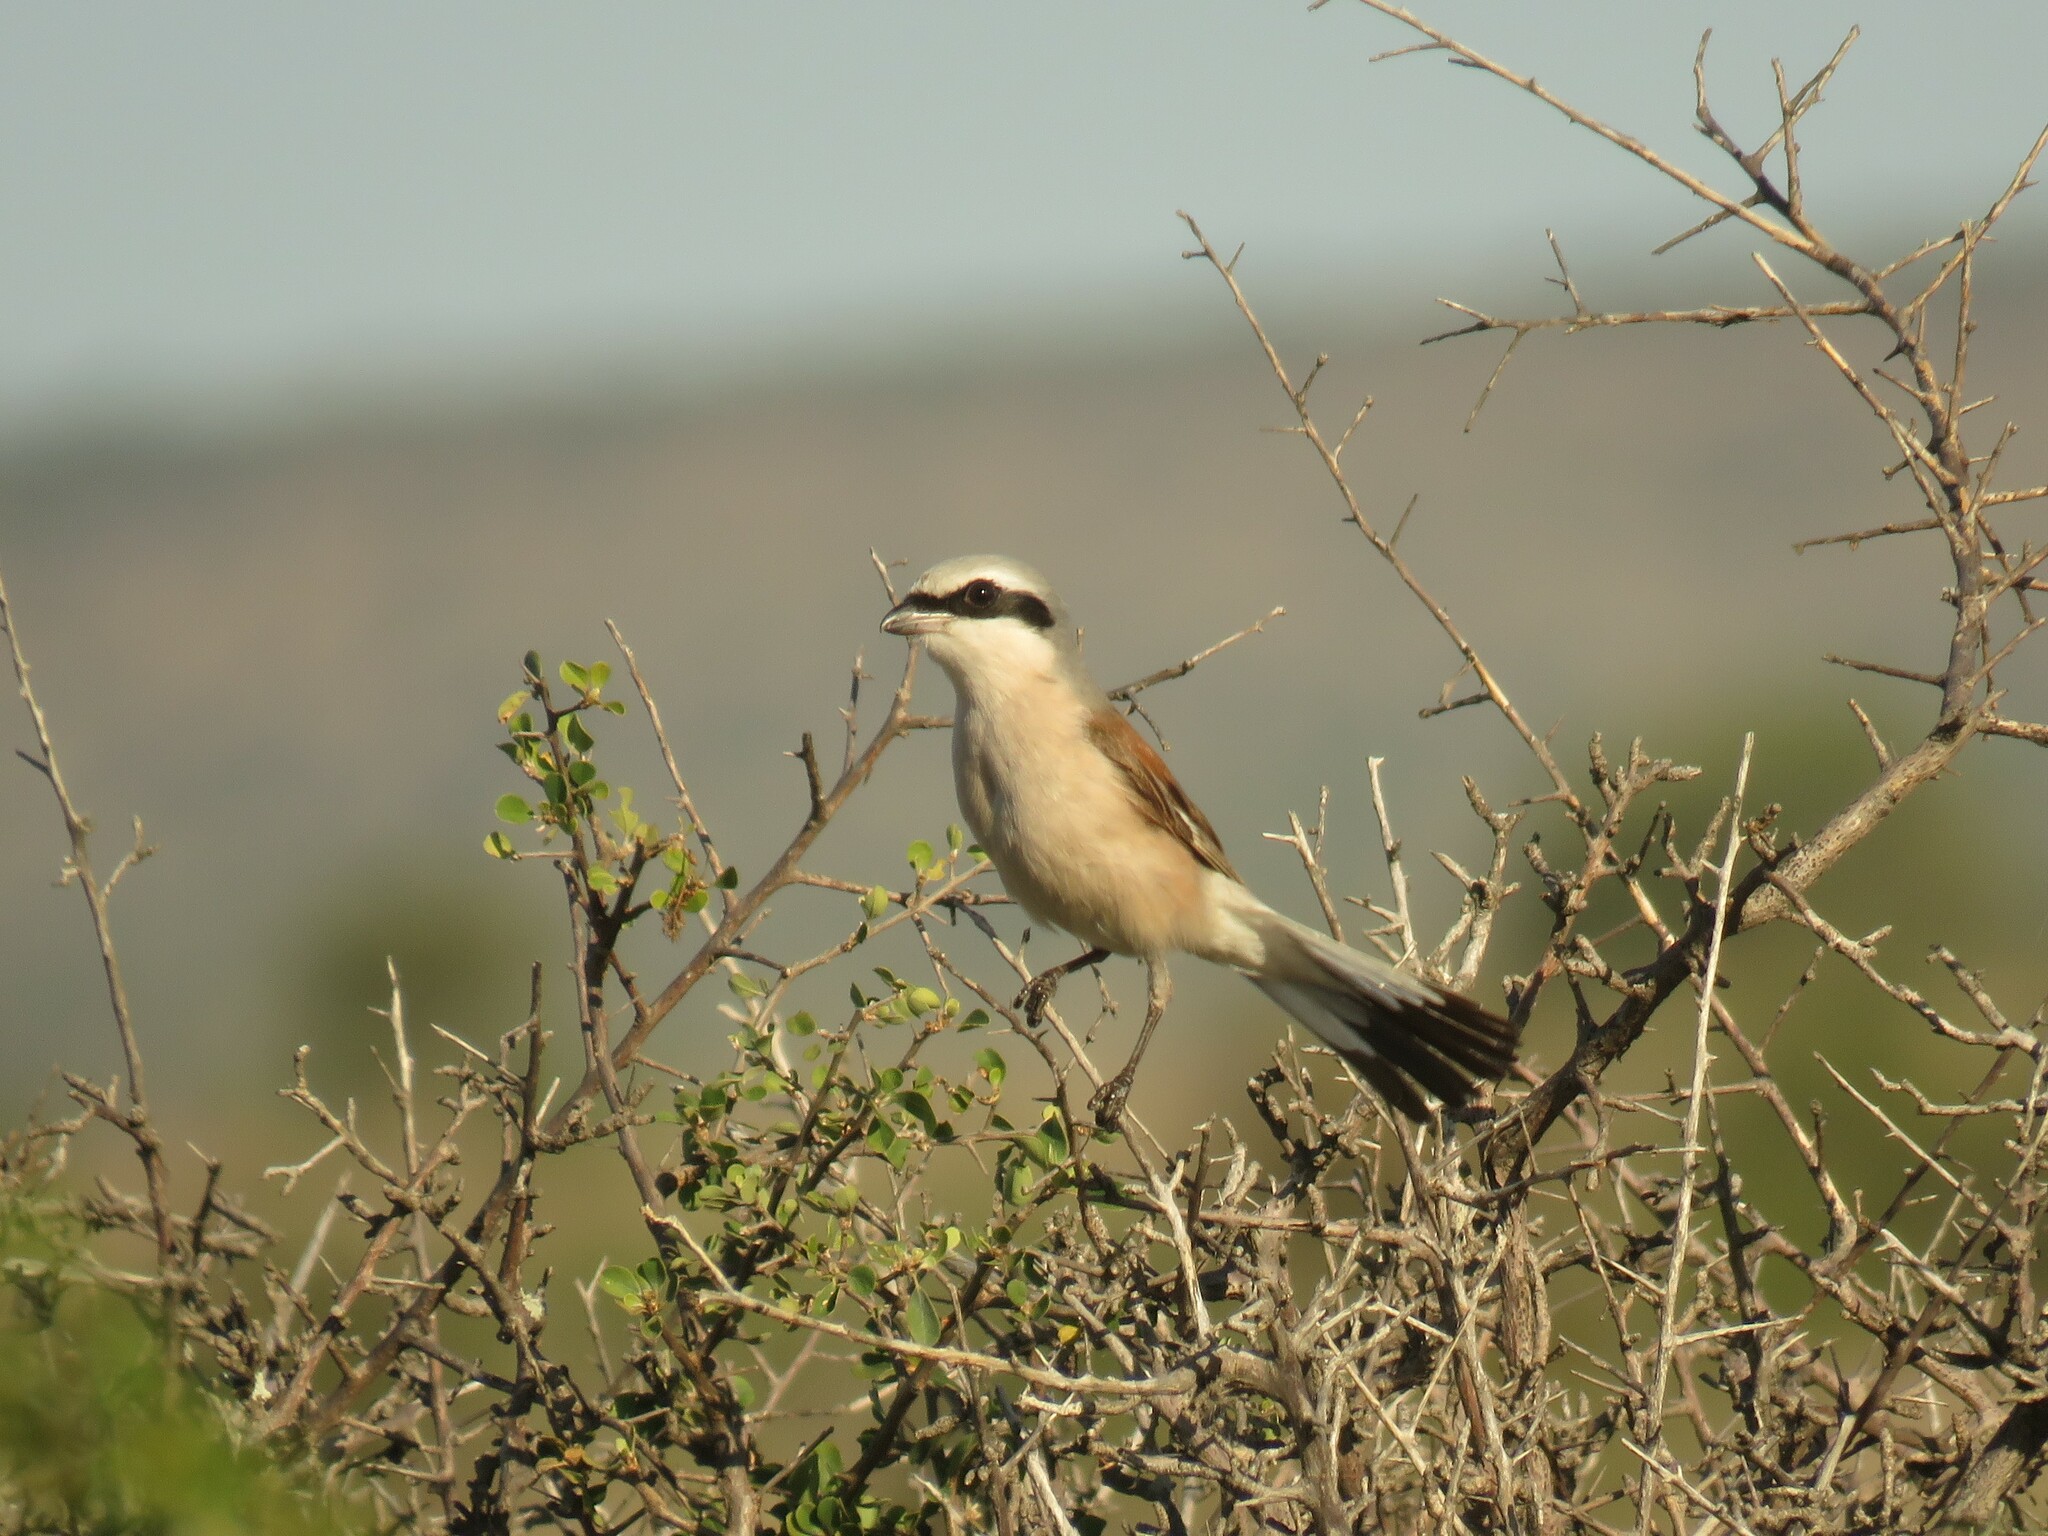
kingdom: Animalia
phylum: Chordata
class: Aves
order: Passeriformes
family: Laniidae
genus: Lanius
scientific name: Lanius collurio
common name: Red-backed shrike
